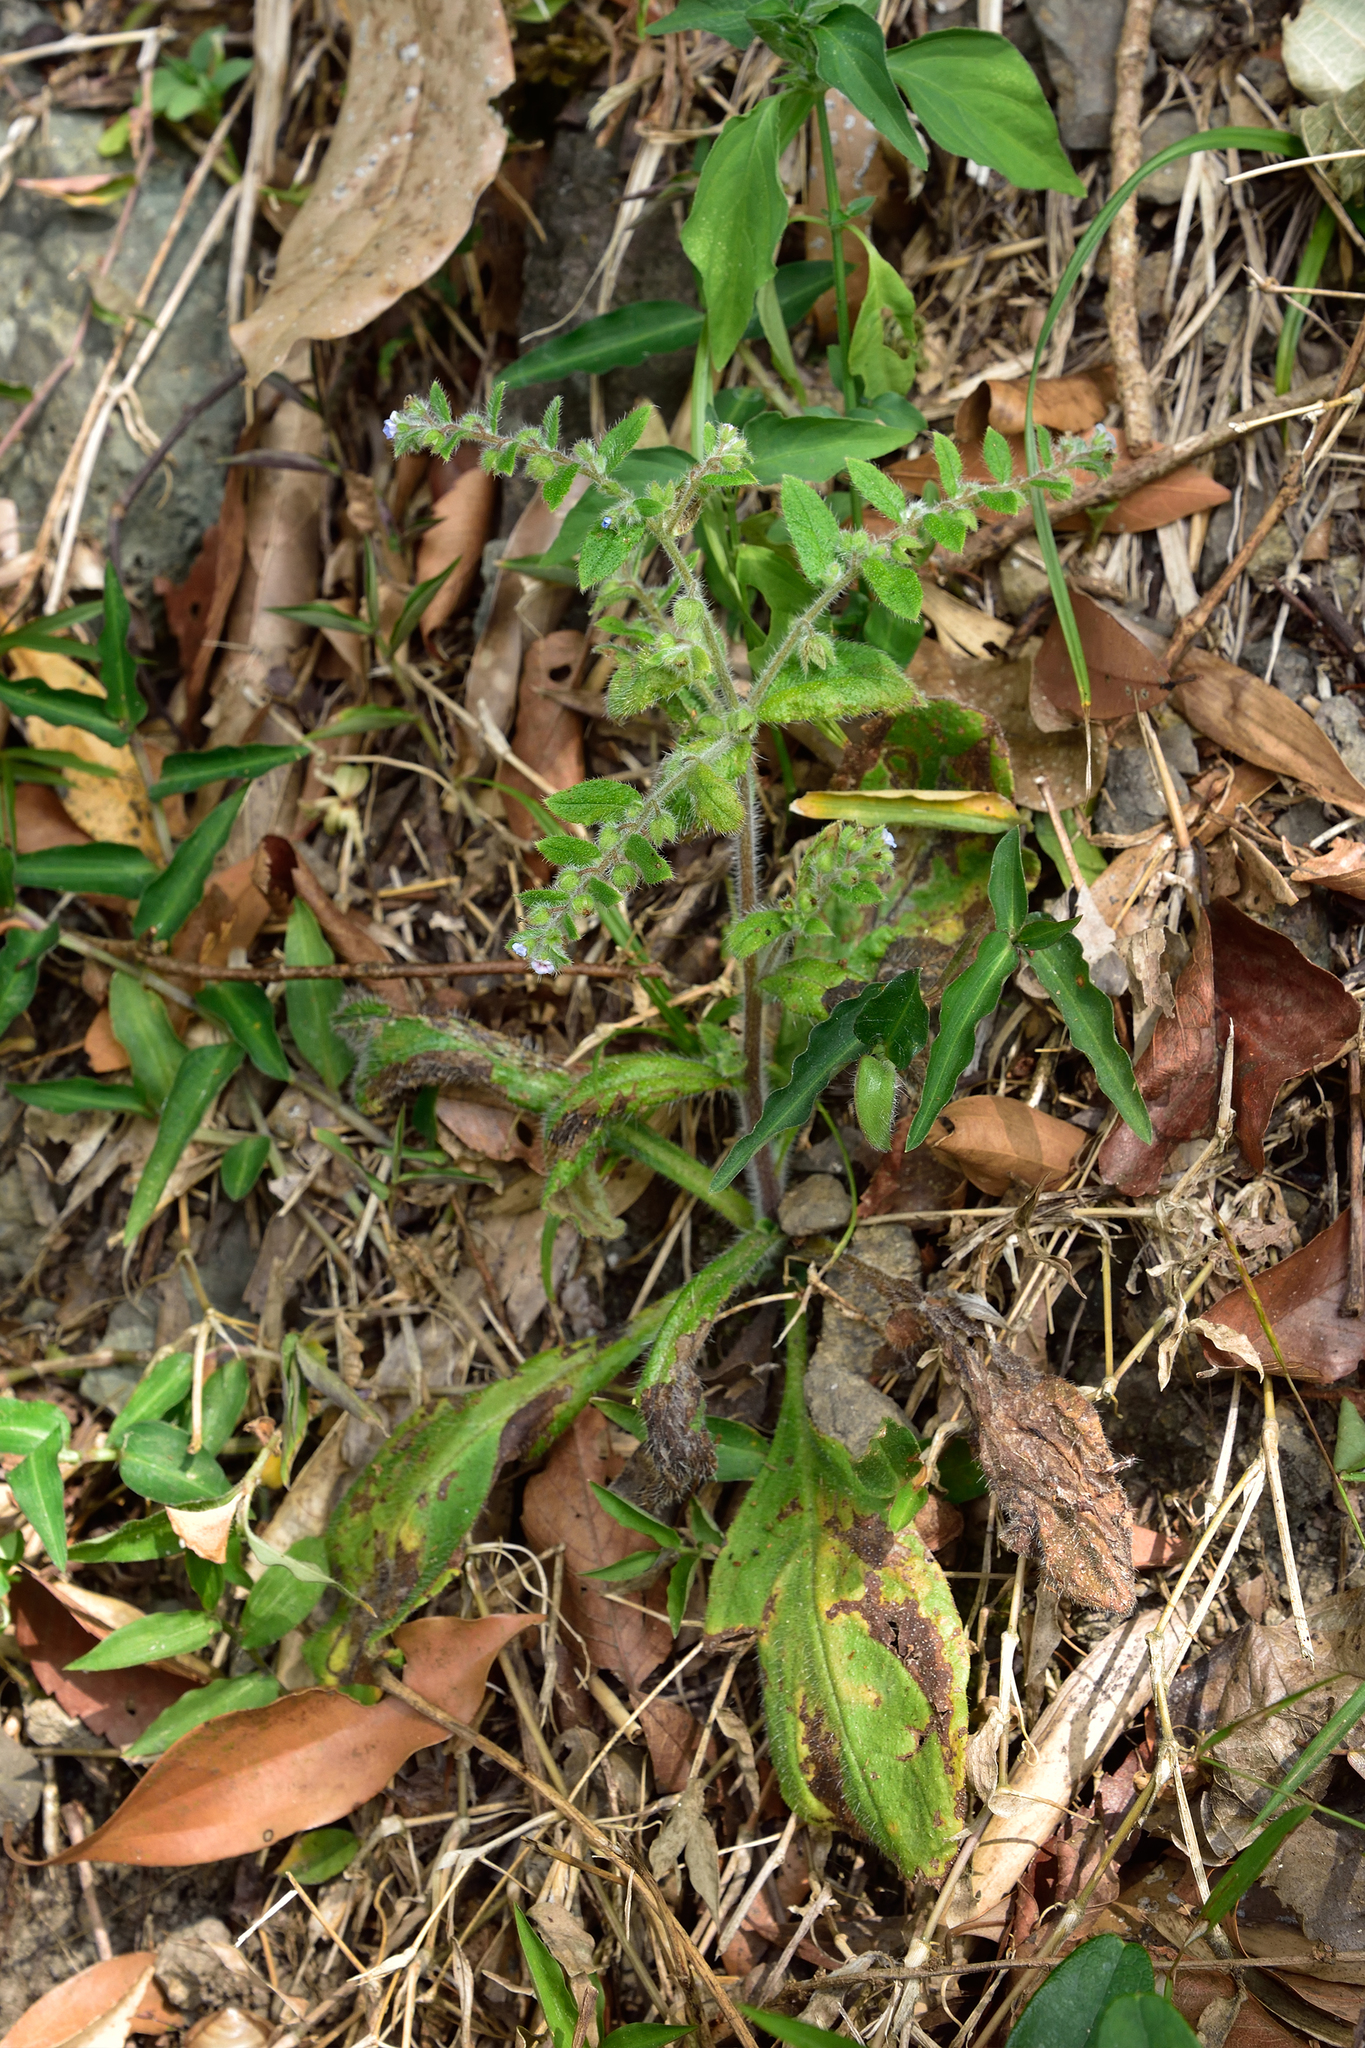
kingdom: Plantae
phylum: Tracheophyta
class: Magnoliopsida
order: Boraginales
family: Boraginaceae
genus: Thyrocarpus
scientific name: Thyrocarpus sampsonii
